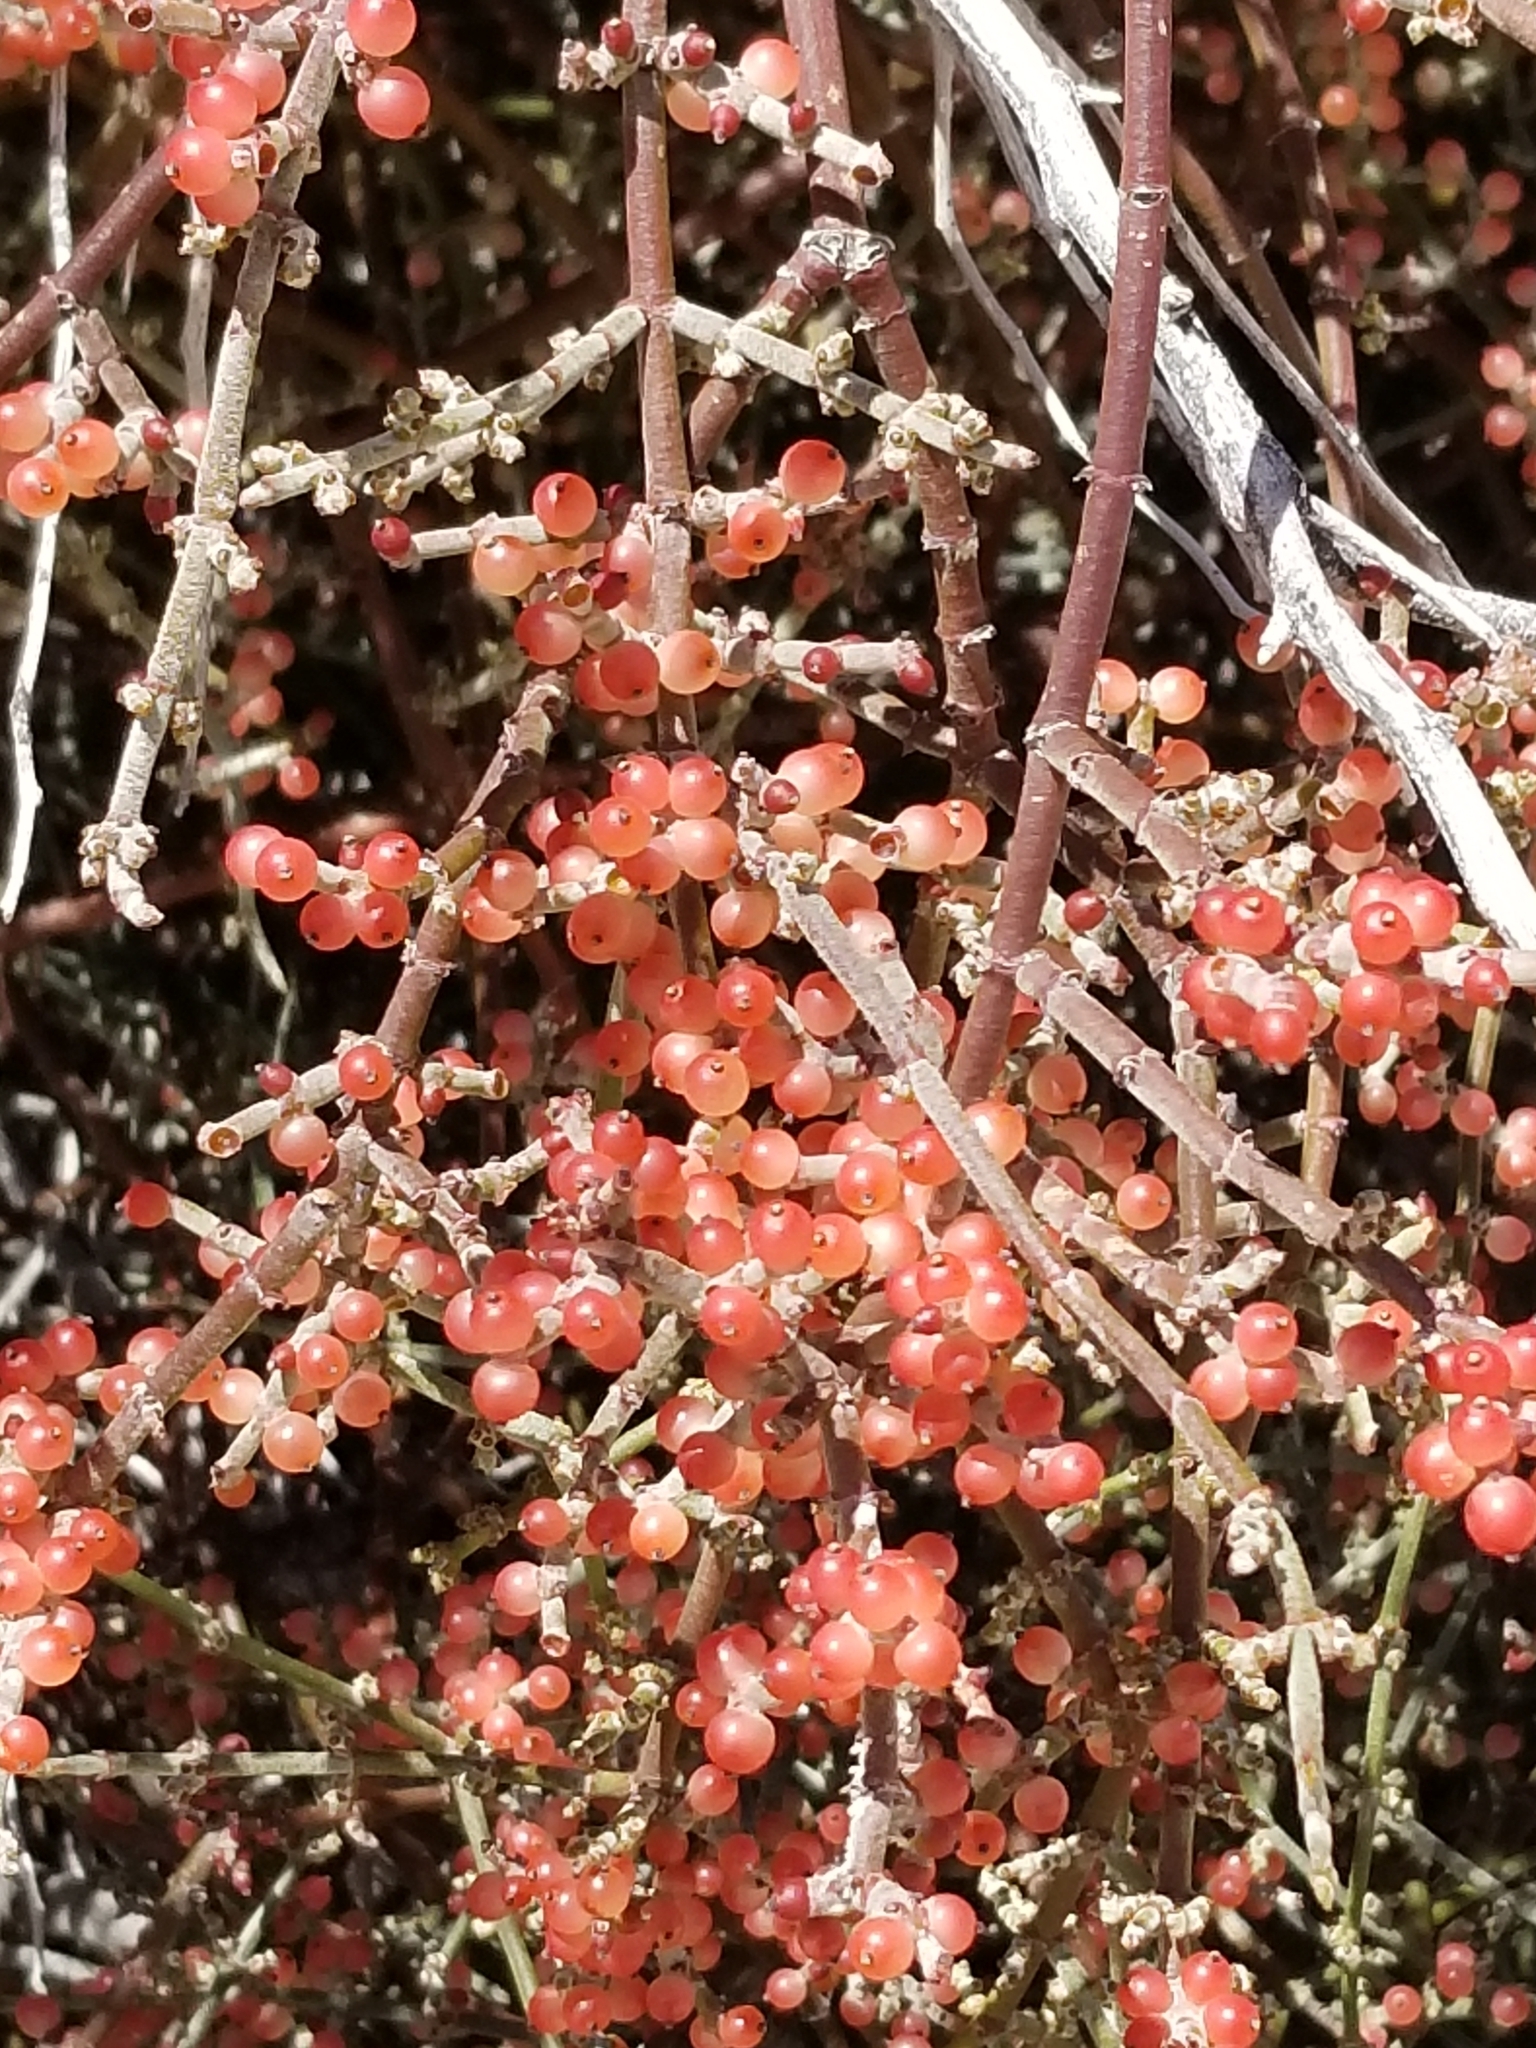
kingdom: Plantae
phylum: Tracheophyta
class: Magnoliopsida
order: Santalales
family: Viscaceae
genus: Phoradendron
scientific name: Phoradendron californicum
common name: Acacia mistletoe
